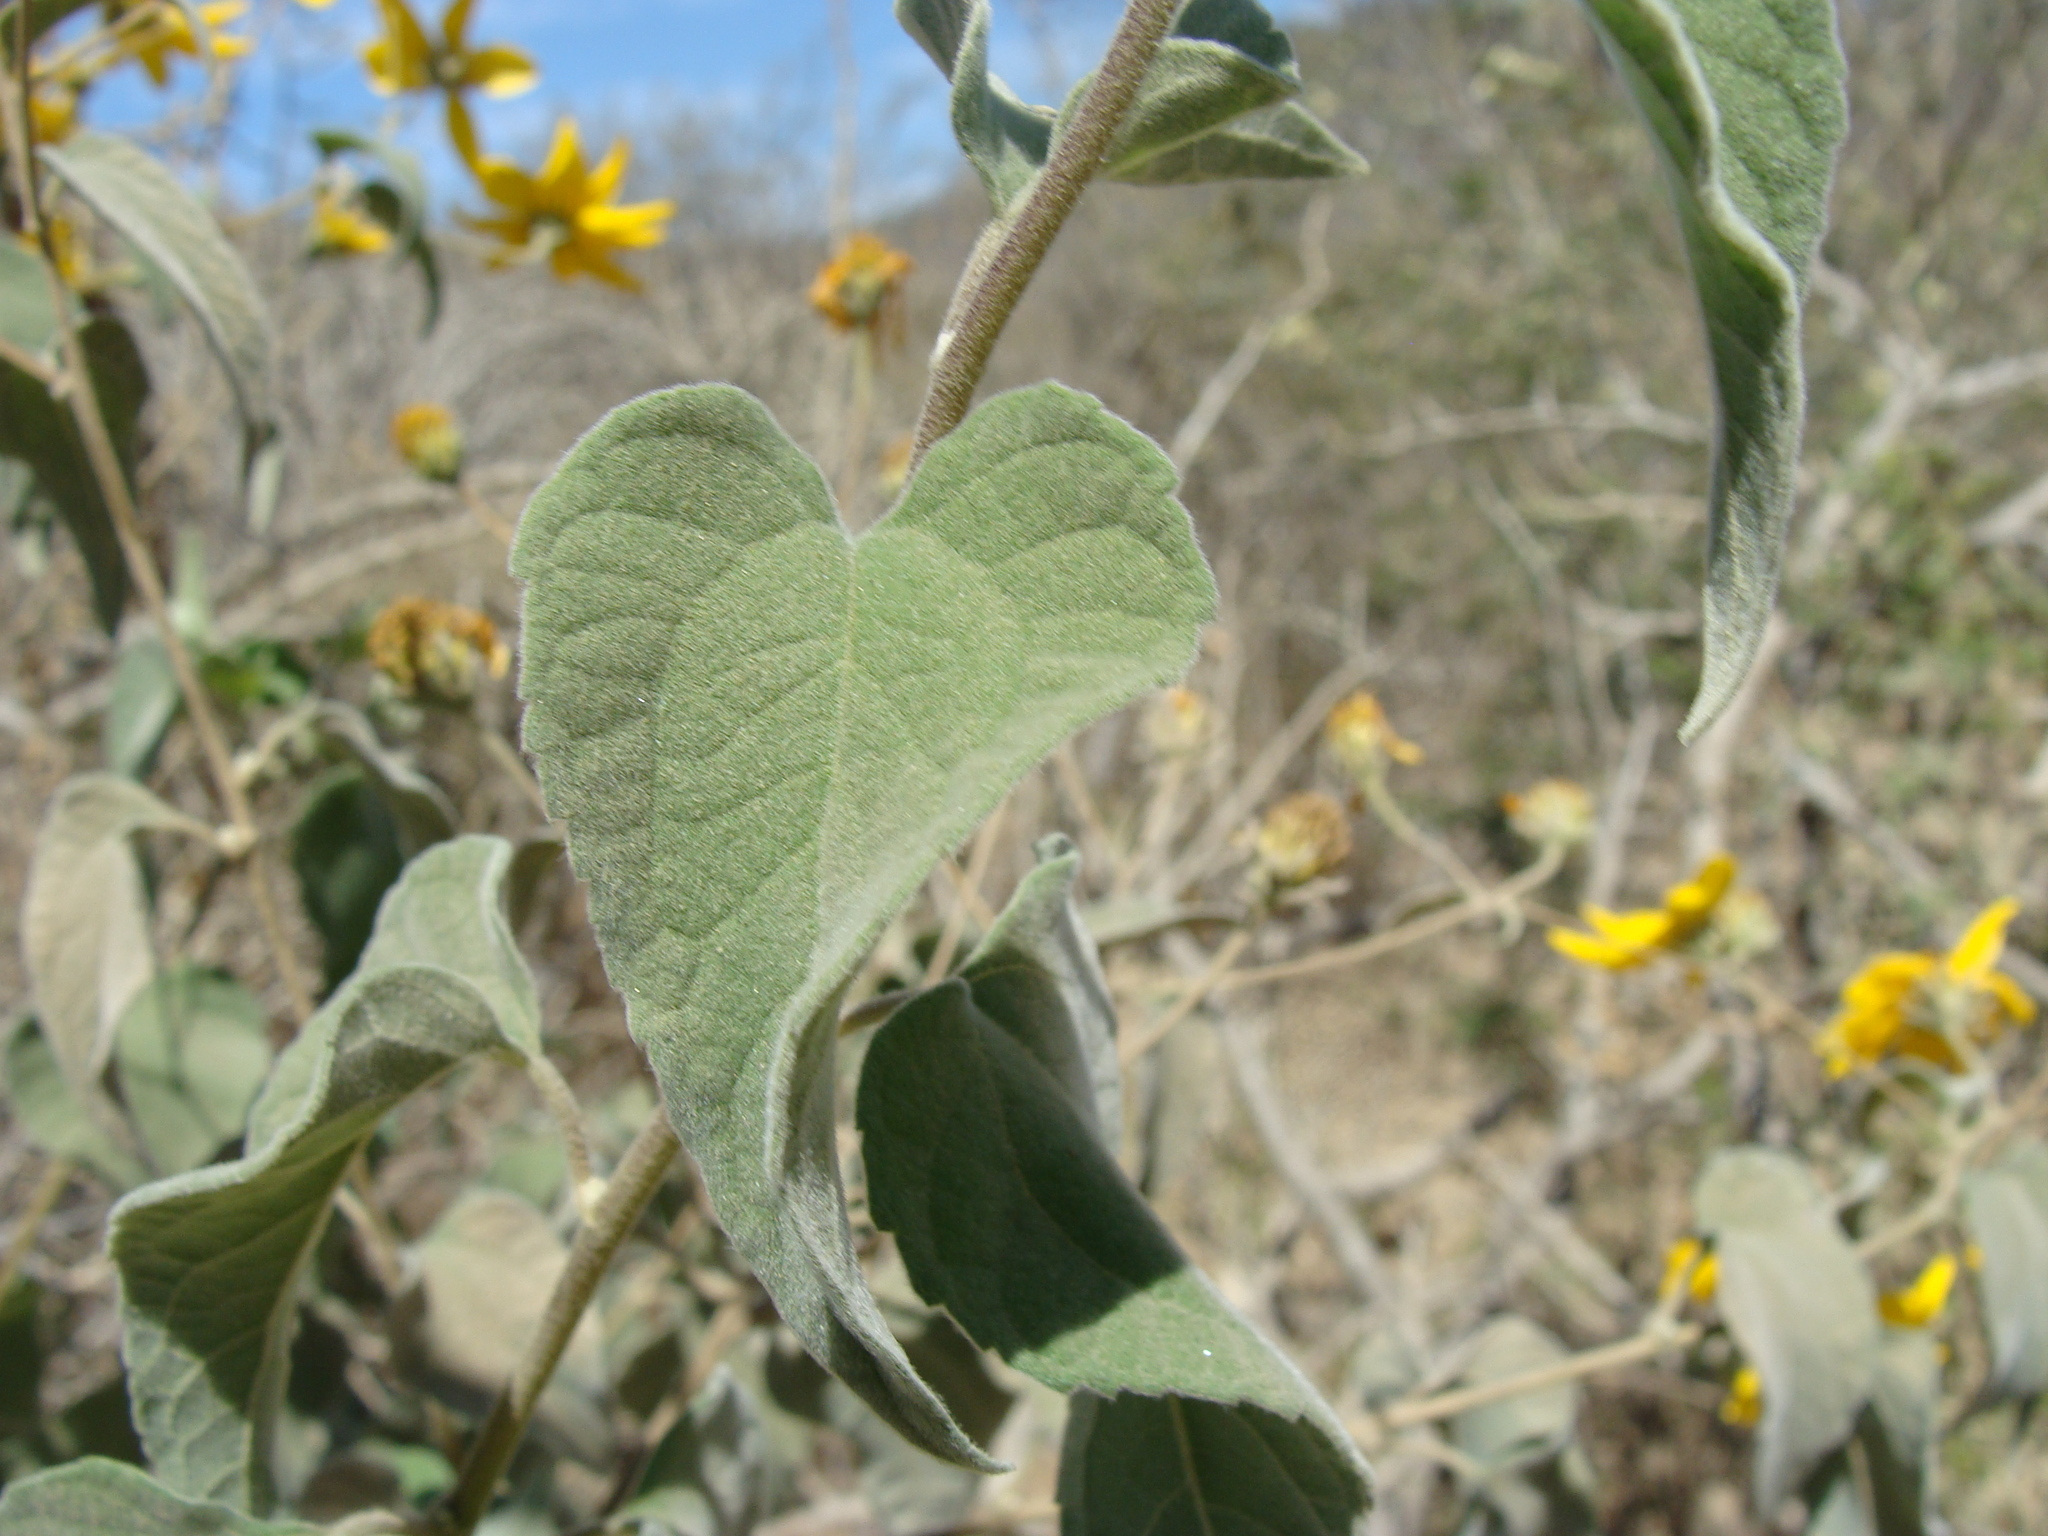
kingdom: Plantae
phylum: Tracheophyta
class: Magnoliopsida
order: Asterales
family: Asteraceae
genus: Bahiopsis
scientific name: Bahiopsis tomentosa
